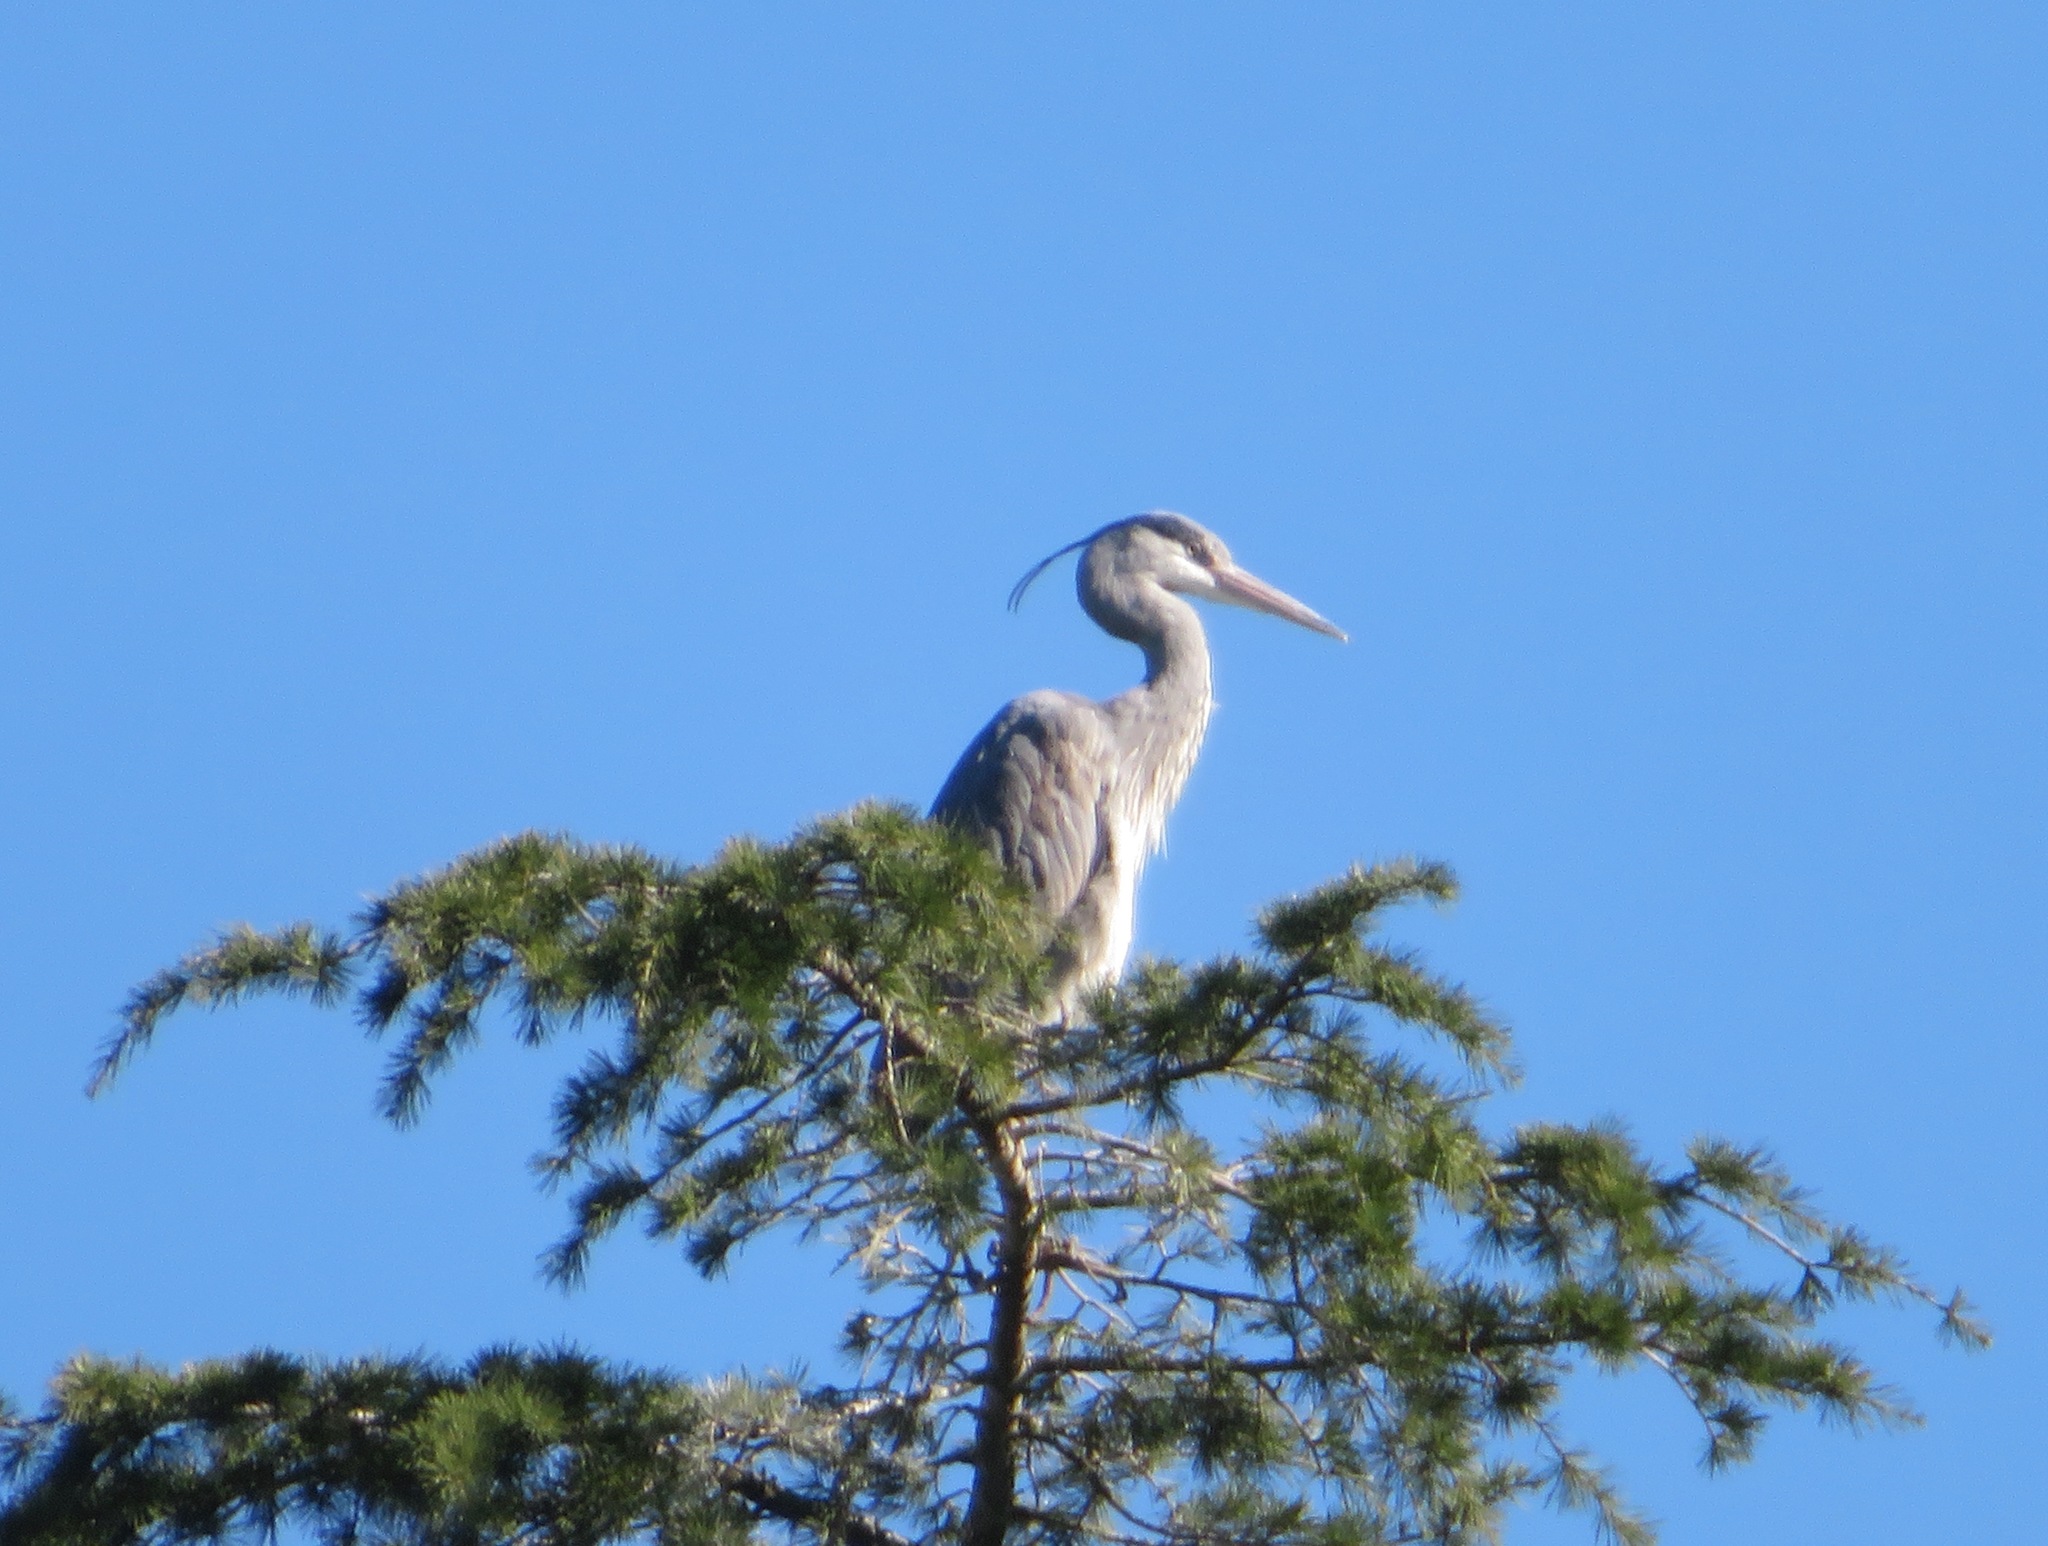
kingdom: Animalia
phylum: Chordata
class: Aves
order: Pelecaniformes
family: Ardeidae
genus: Ardea
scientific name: Ardea cinerea
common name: Grey heron
